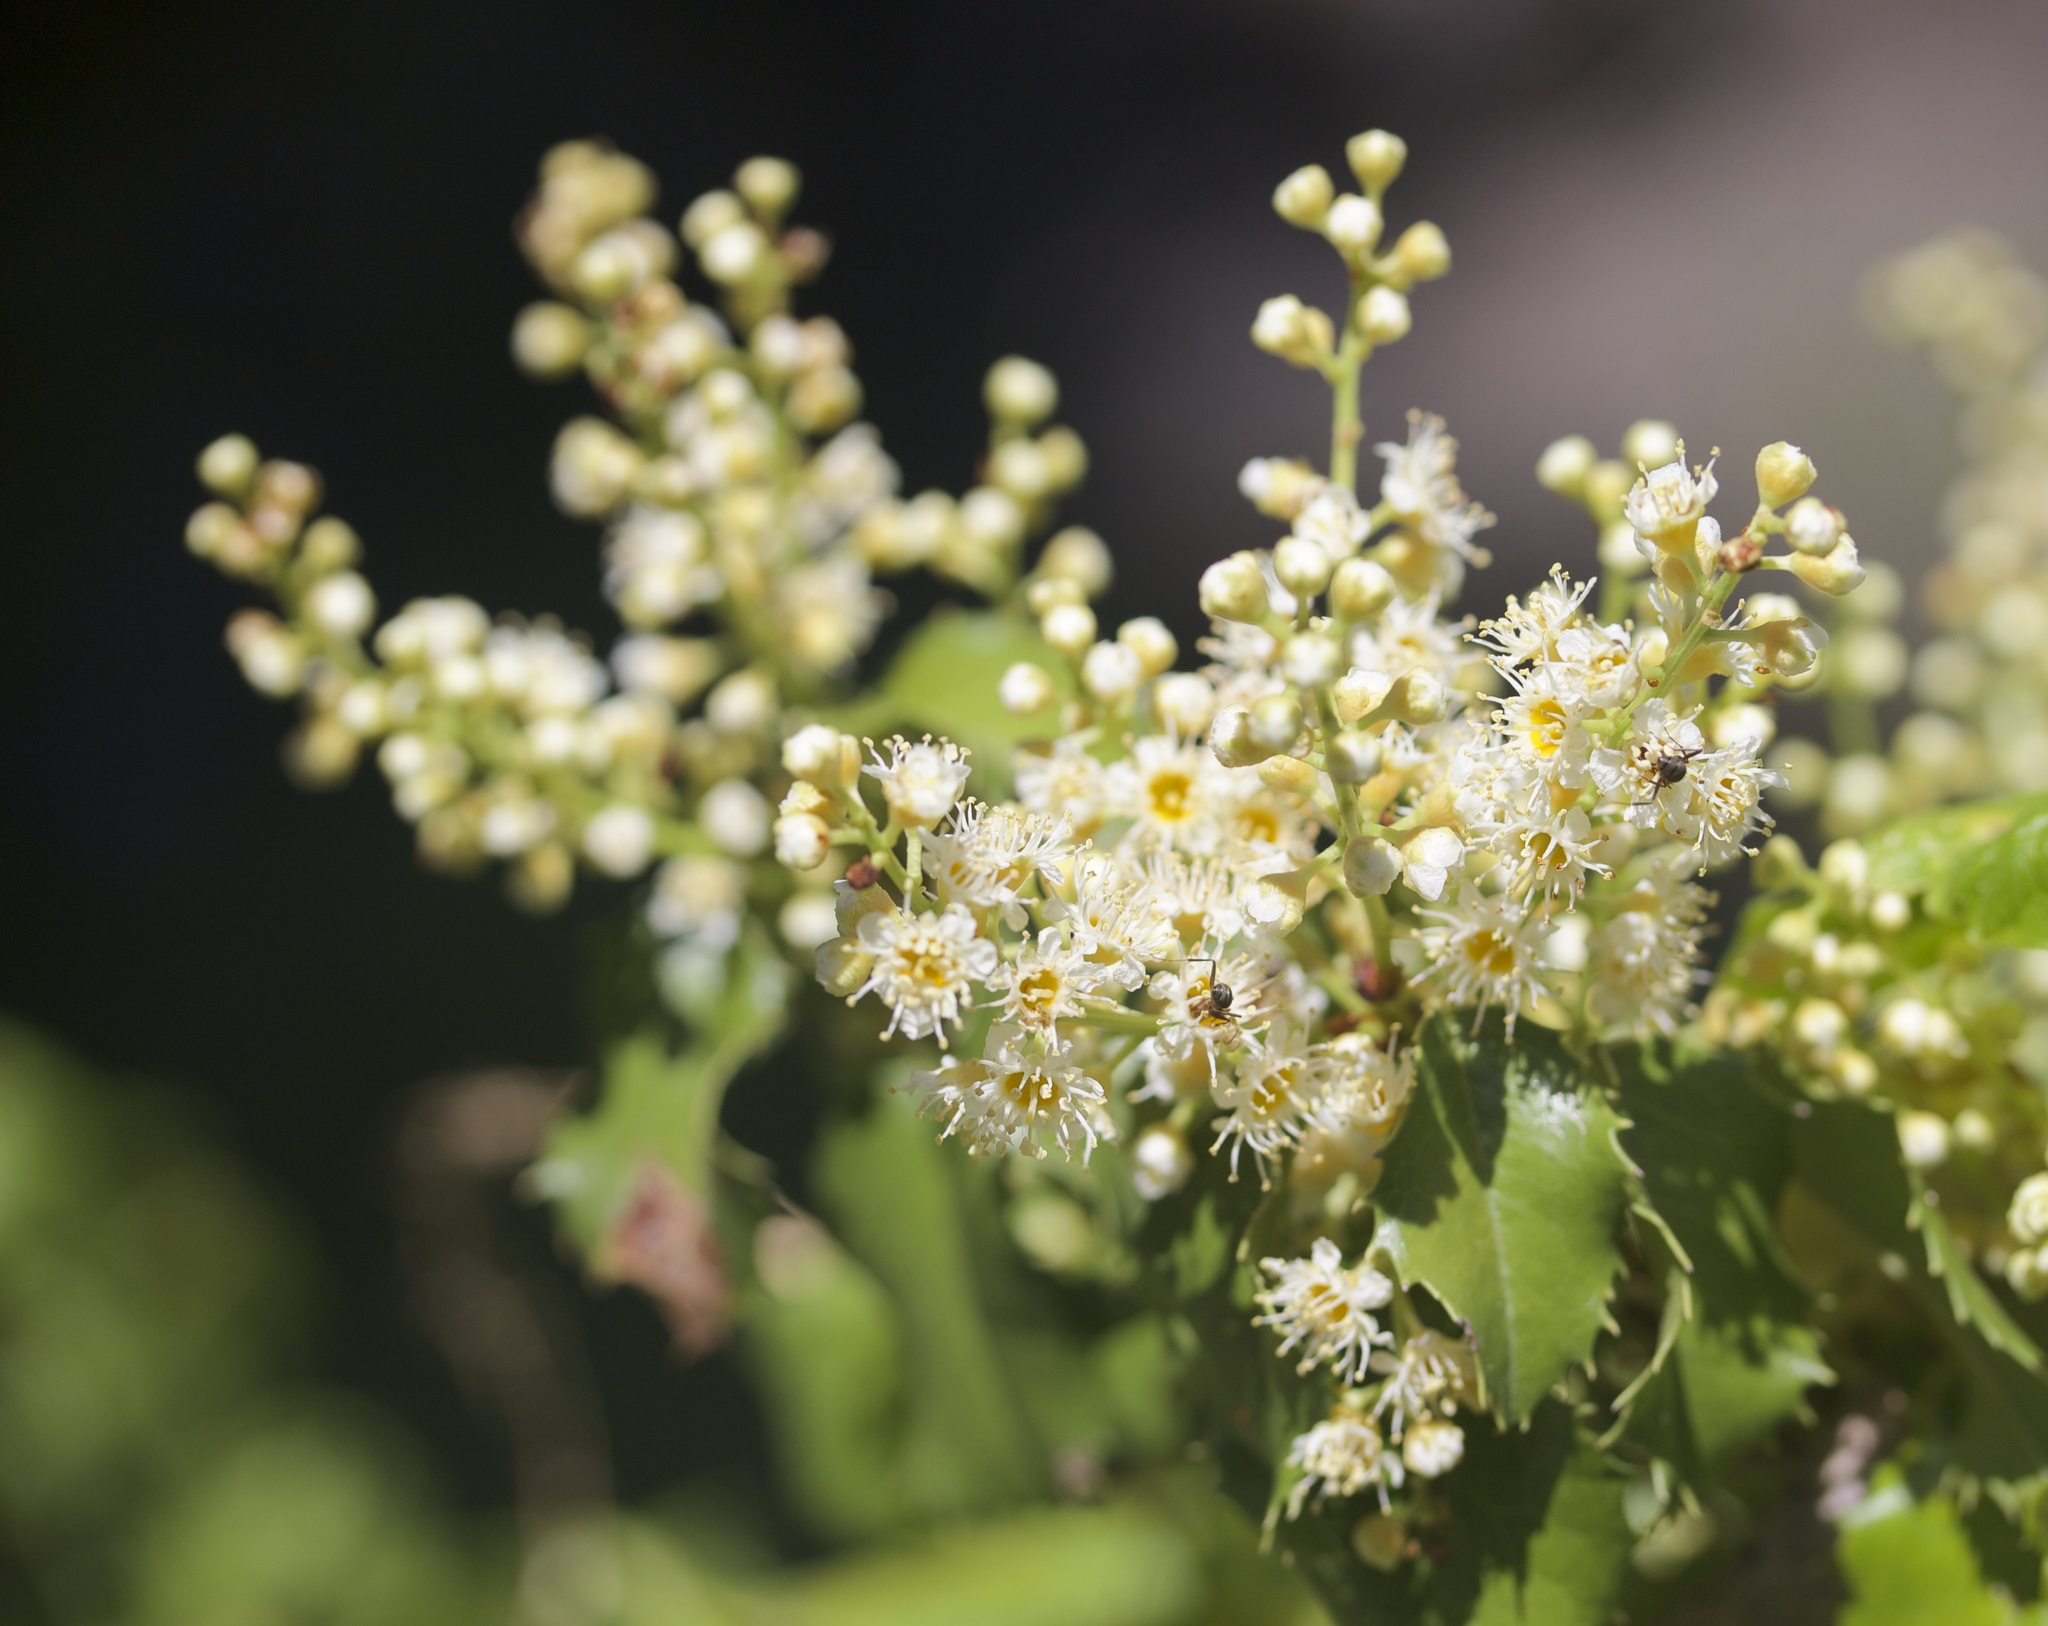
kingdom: Plantae
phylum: Tracheophyta
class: Magnoliopsida
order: Rosales
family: Rosaceae
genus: Prunus
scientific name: Prunus ilicifolia
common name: Hollyleaf cherry
